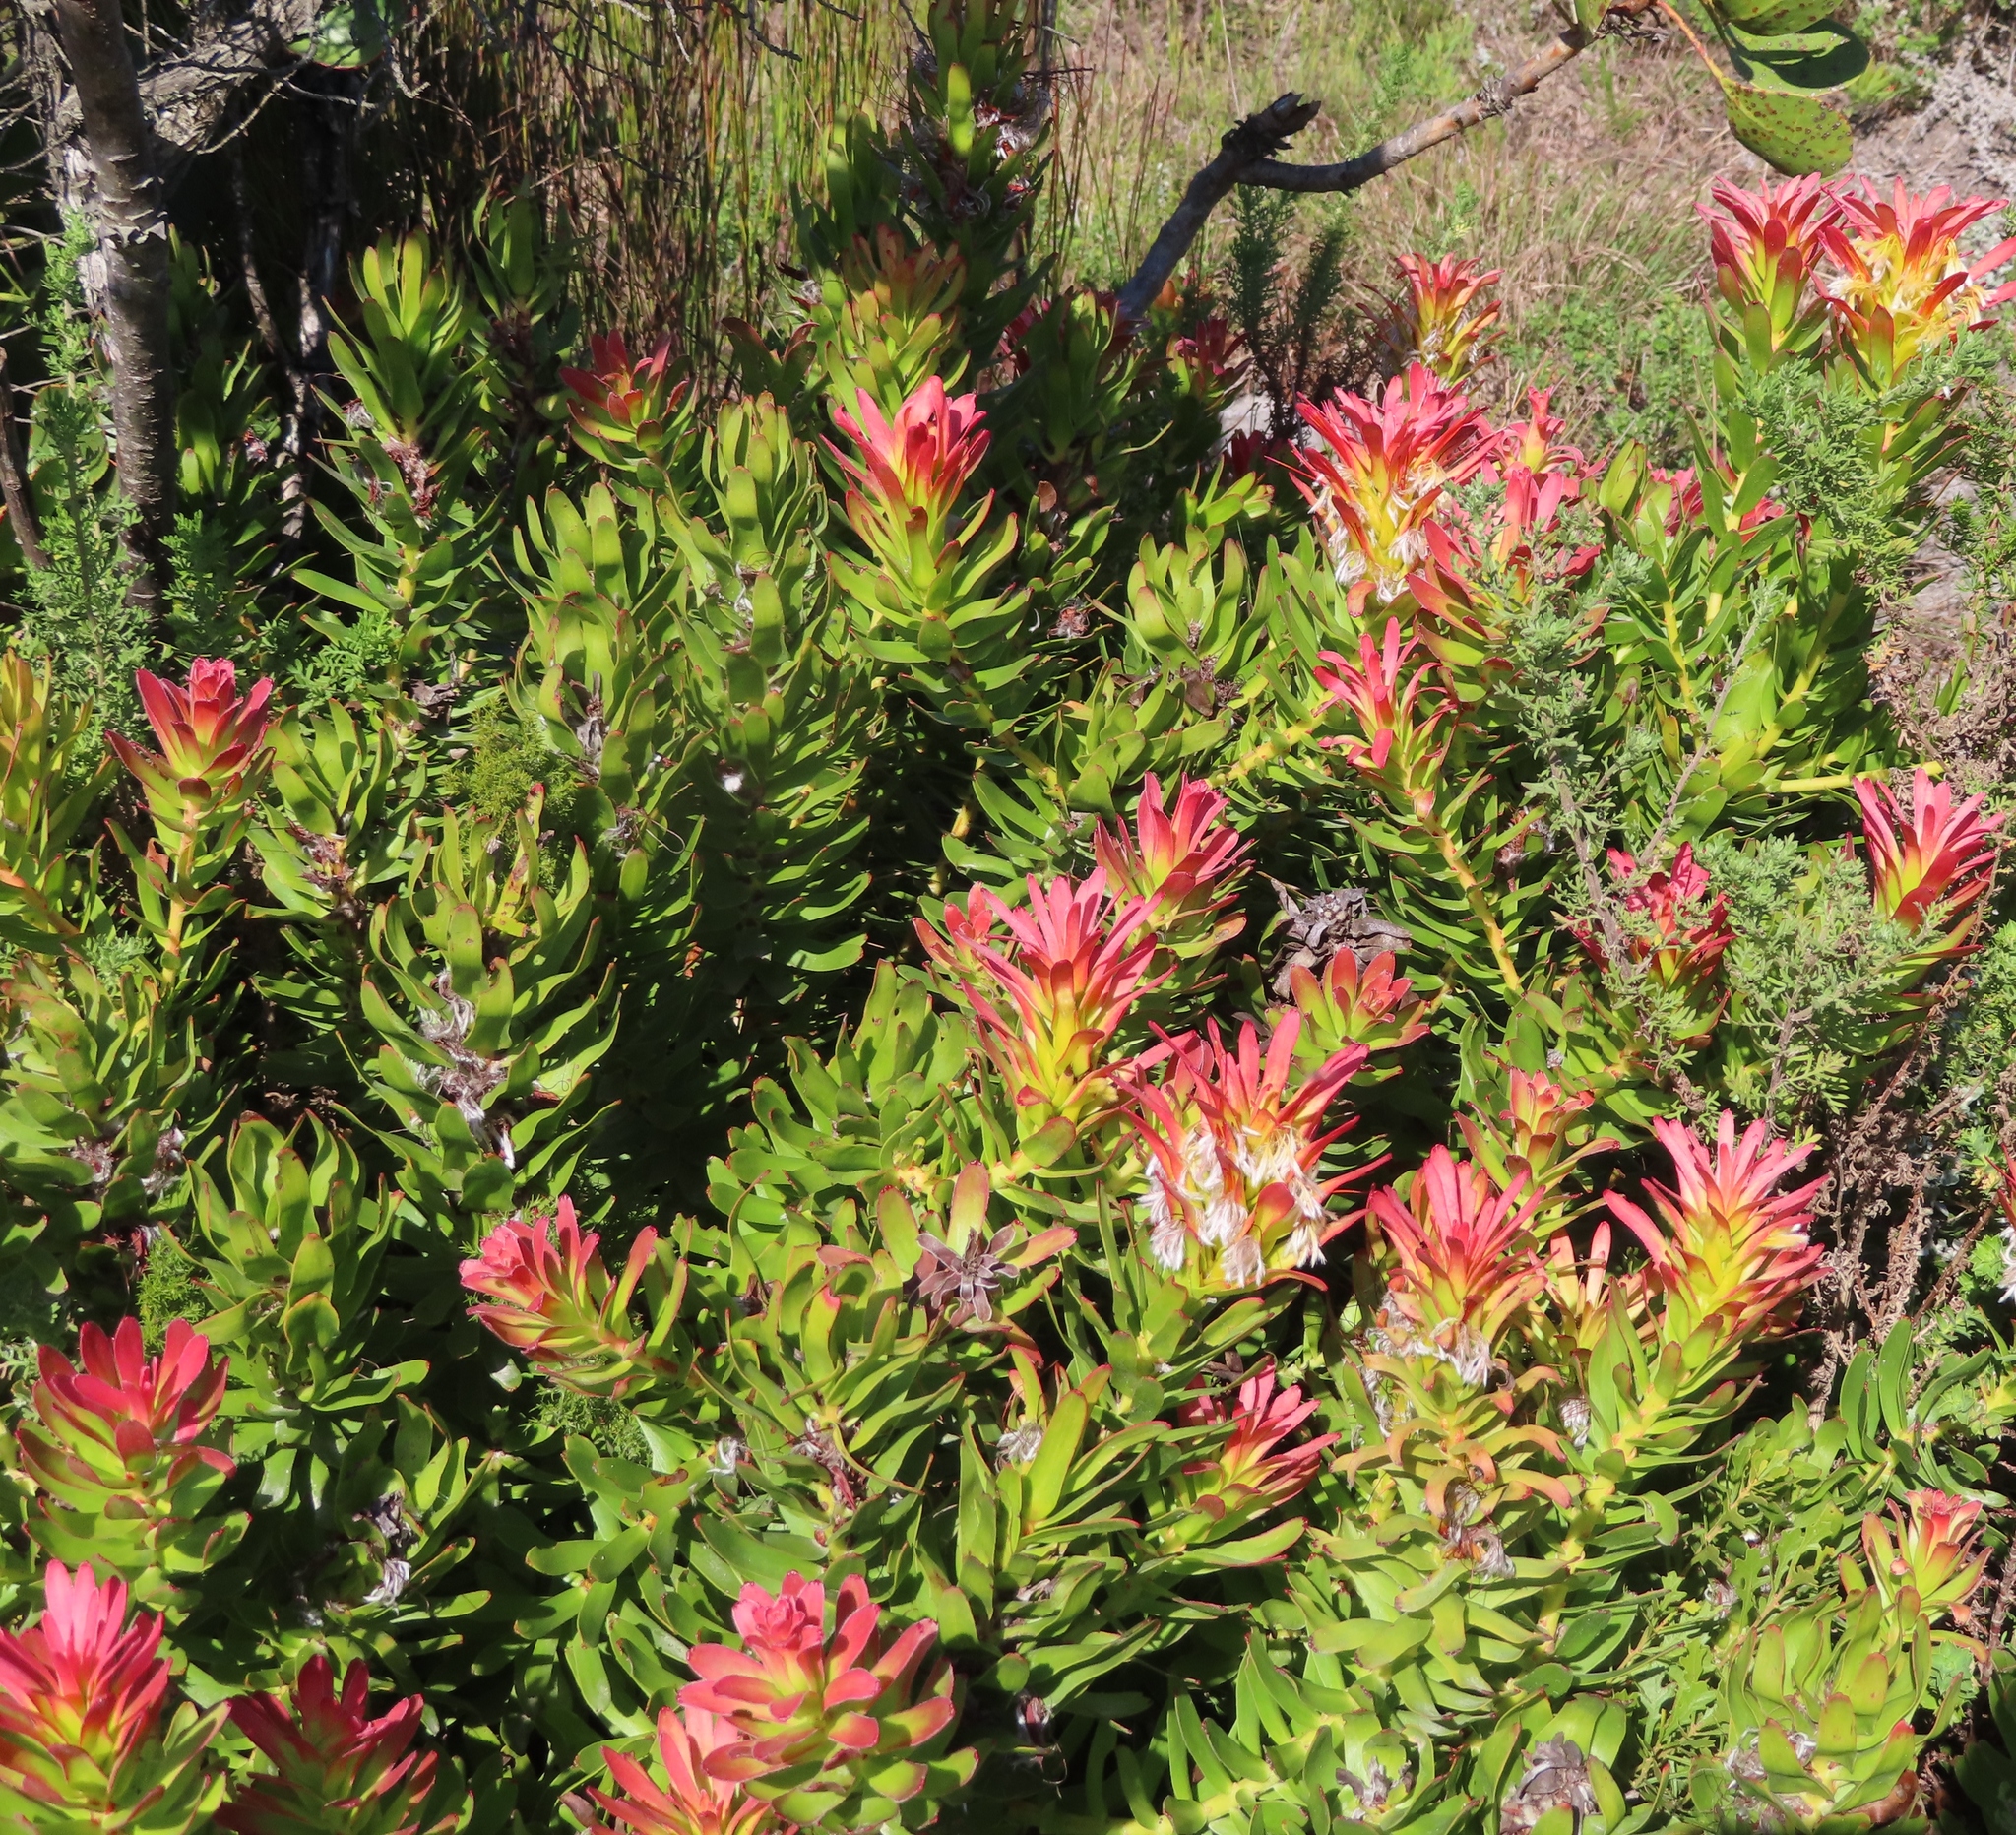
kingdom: Plantae
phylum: Tracheophyta
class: Magnoliopsida
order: Proteales
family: Proteaceae
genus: Mimetes
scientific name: Mimetes cucullatus
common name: Common pagoda
